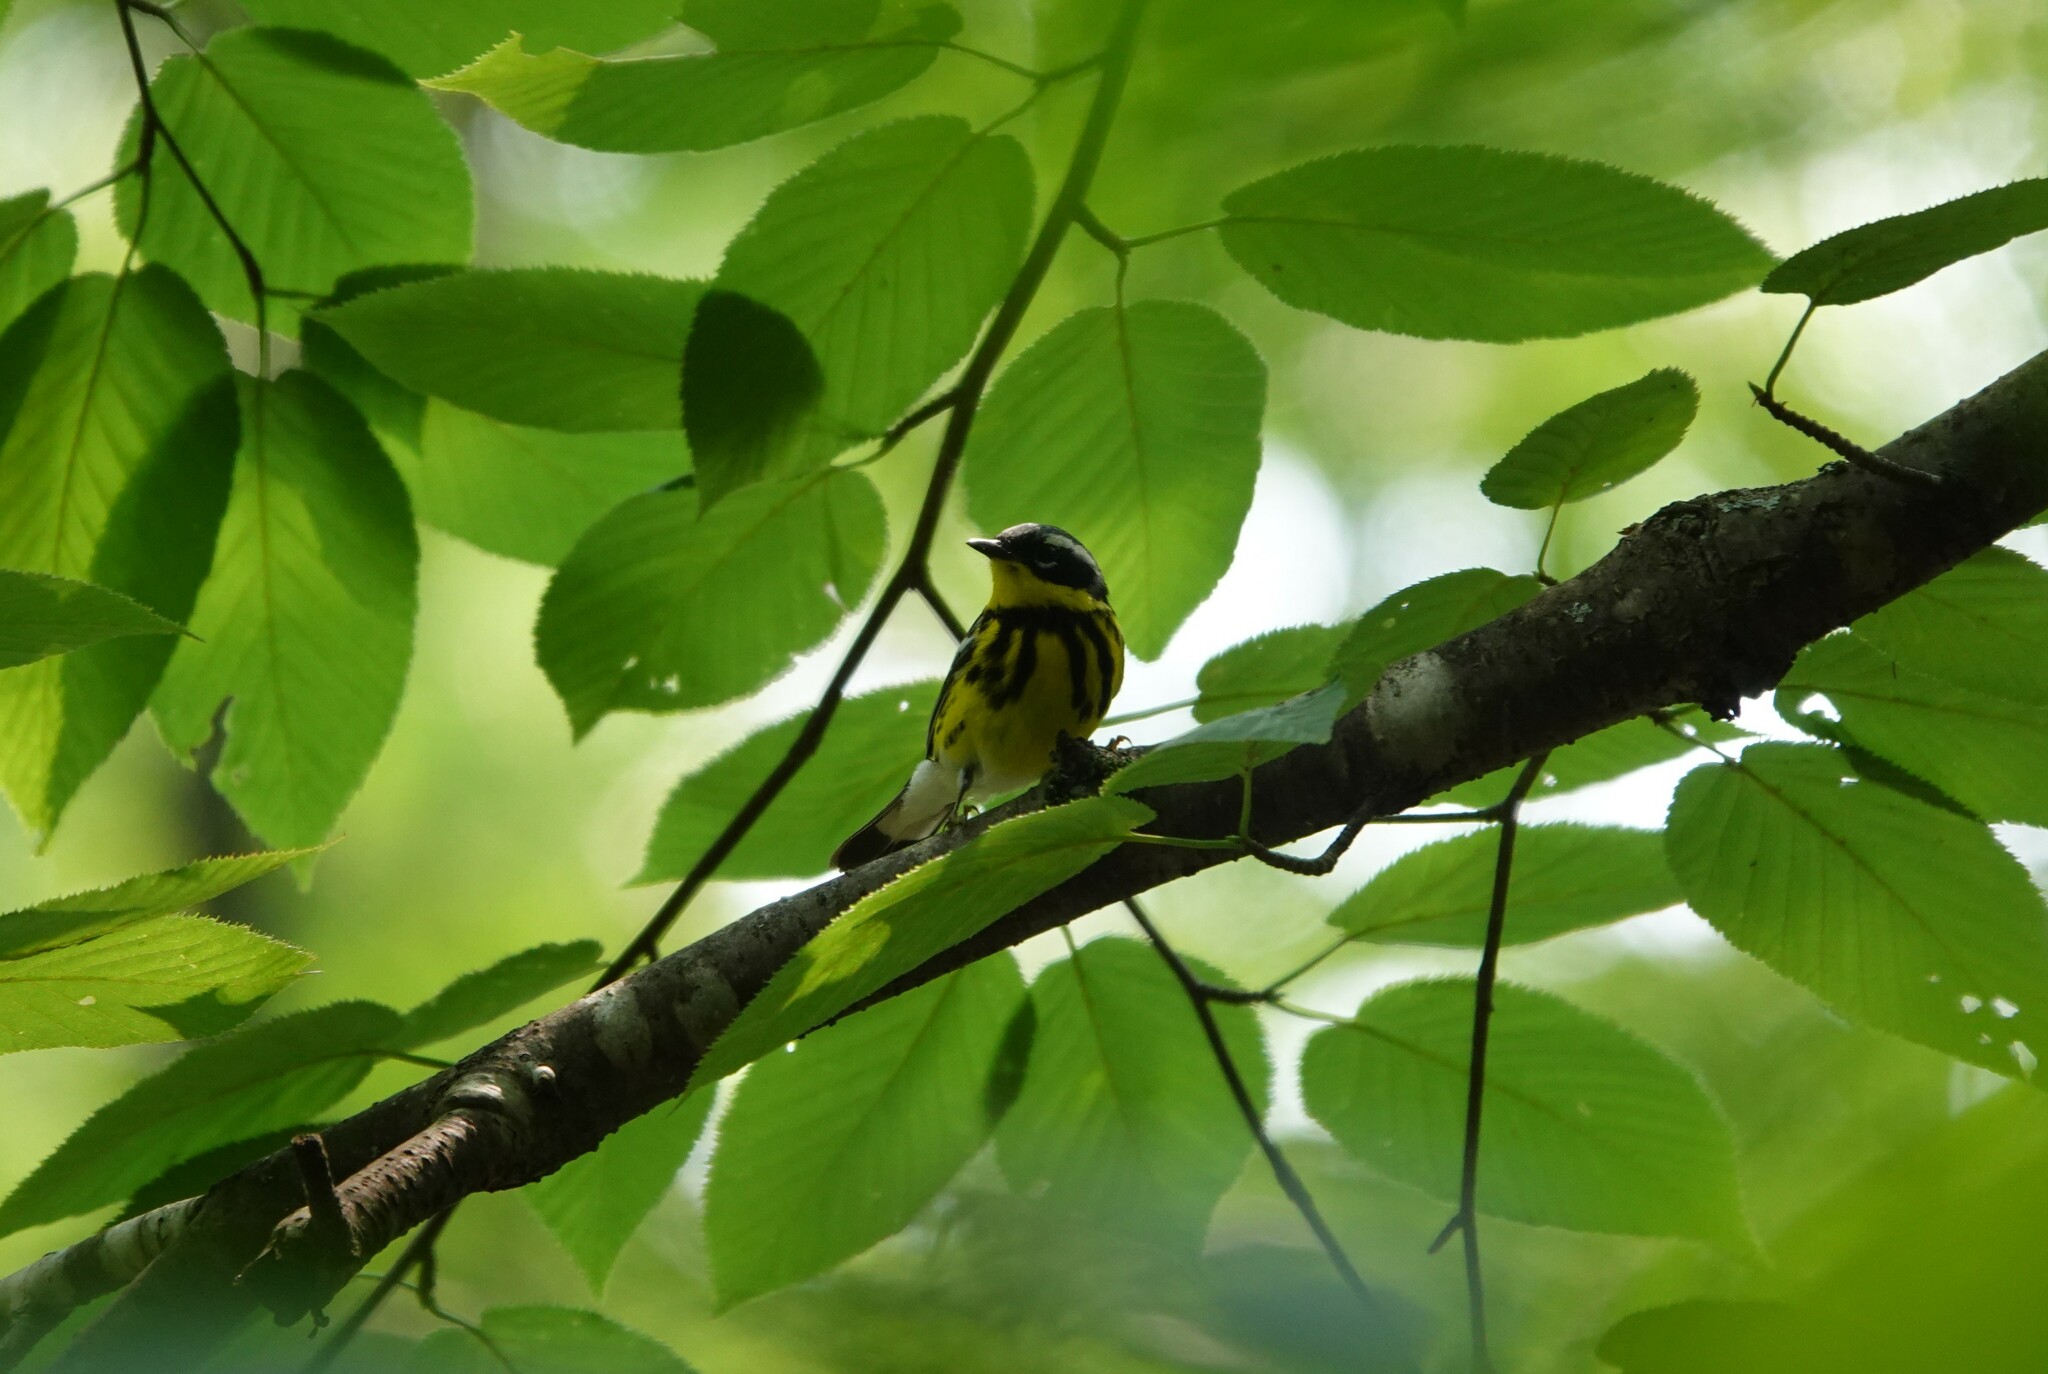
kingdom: Animalia
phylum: Chordata
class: Aves
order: Passeriformes
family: Parulidae
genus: Setophaga
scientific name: Setophaga magnolia
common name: Magnolia warbler
